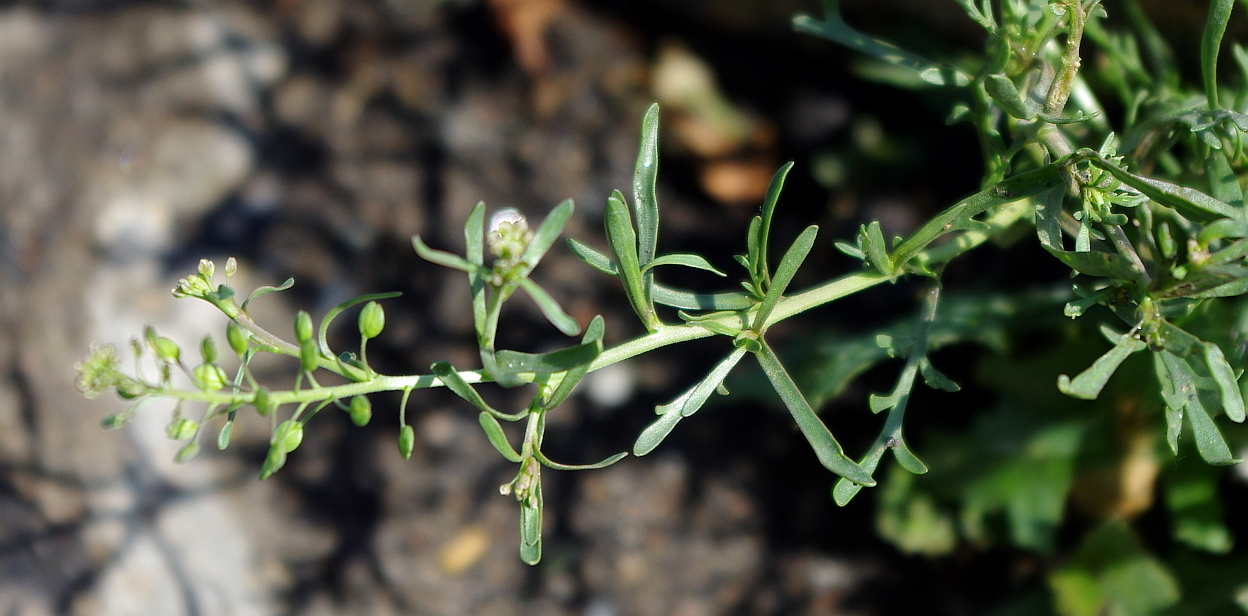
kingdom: Plantae
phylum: Tracheophyta
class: Magnoliopsida
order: Brassicales
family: Brassicaceae
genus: Lepidium
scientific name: Lepidium ruderale
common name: Narrow-leaved pepperwort
